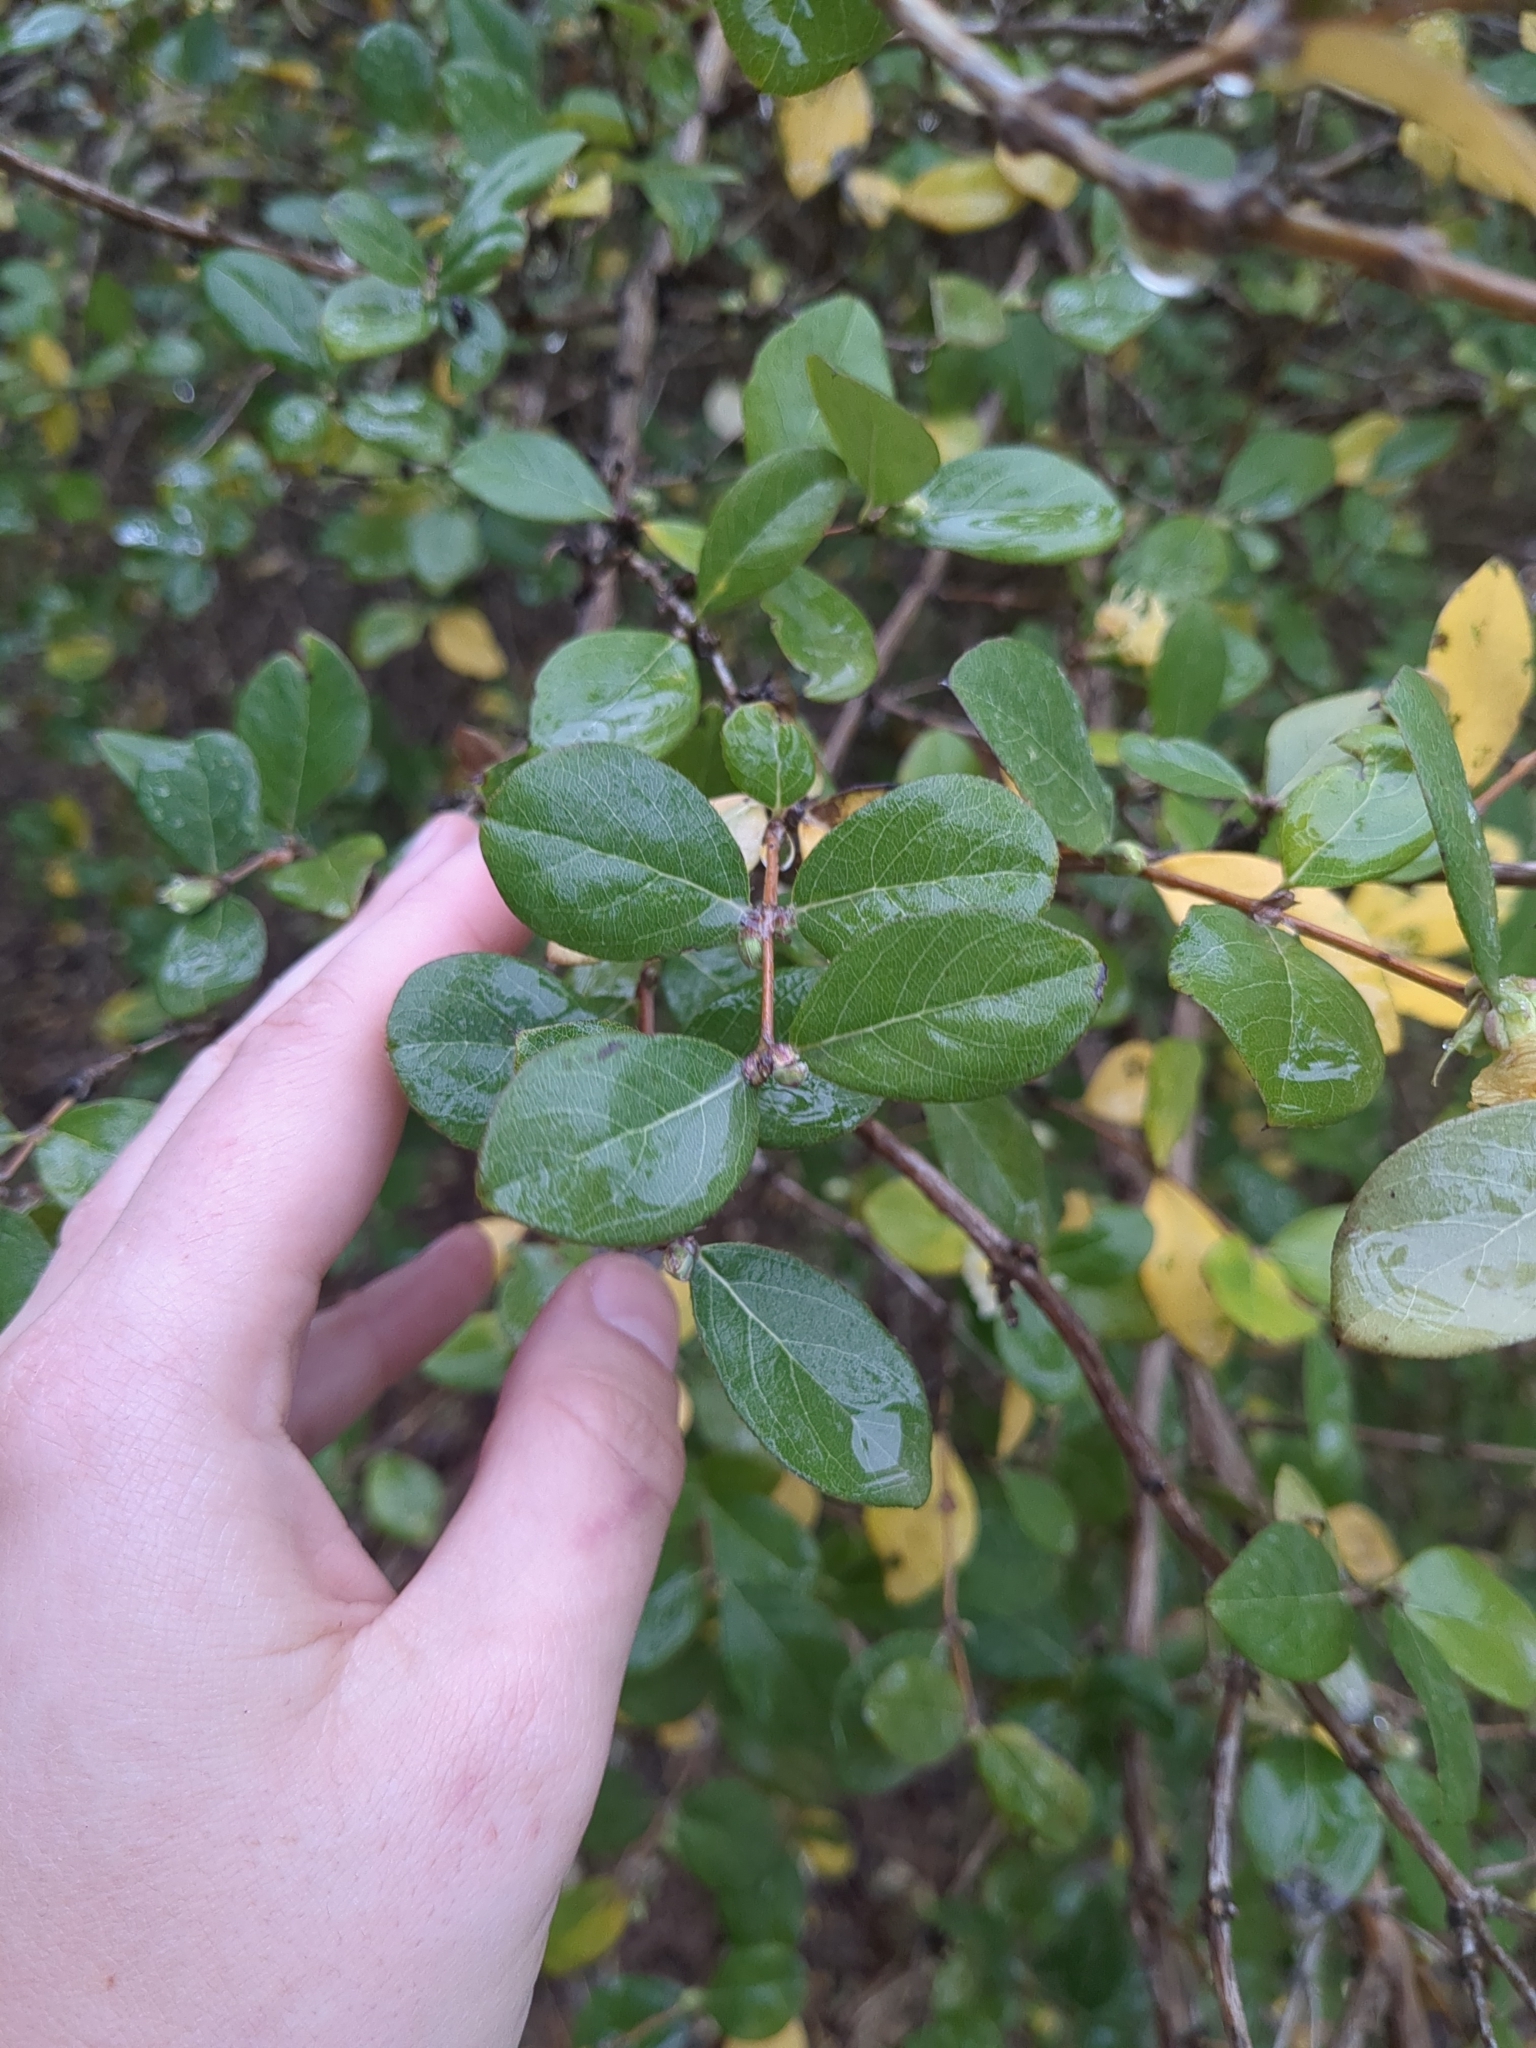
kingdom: Plantae
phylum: Tracheophyta
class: Magnoliopsida
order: Dipsacales
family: Caprifoliaceae
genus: Lonicera
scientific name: Lonicera fragrantissima
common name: Fragrant honeysuckle
